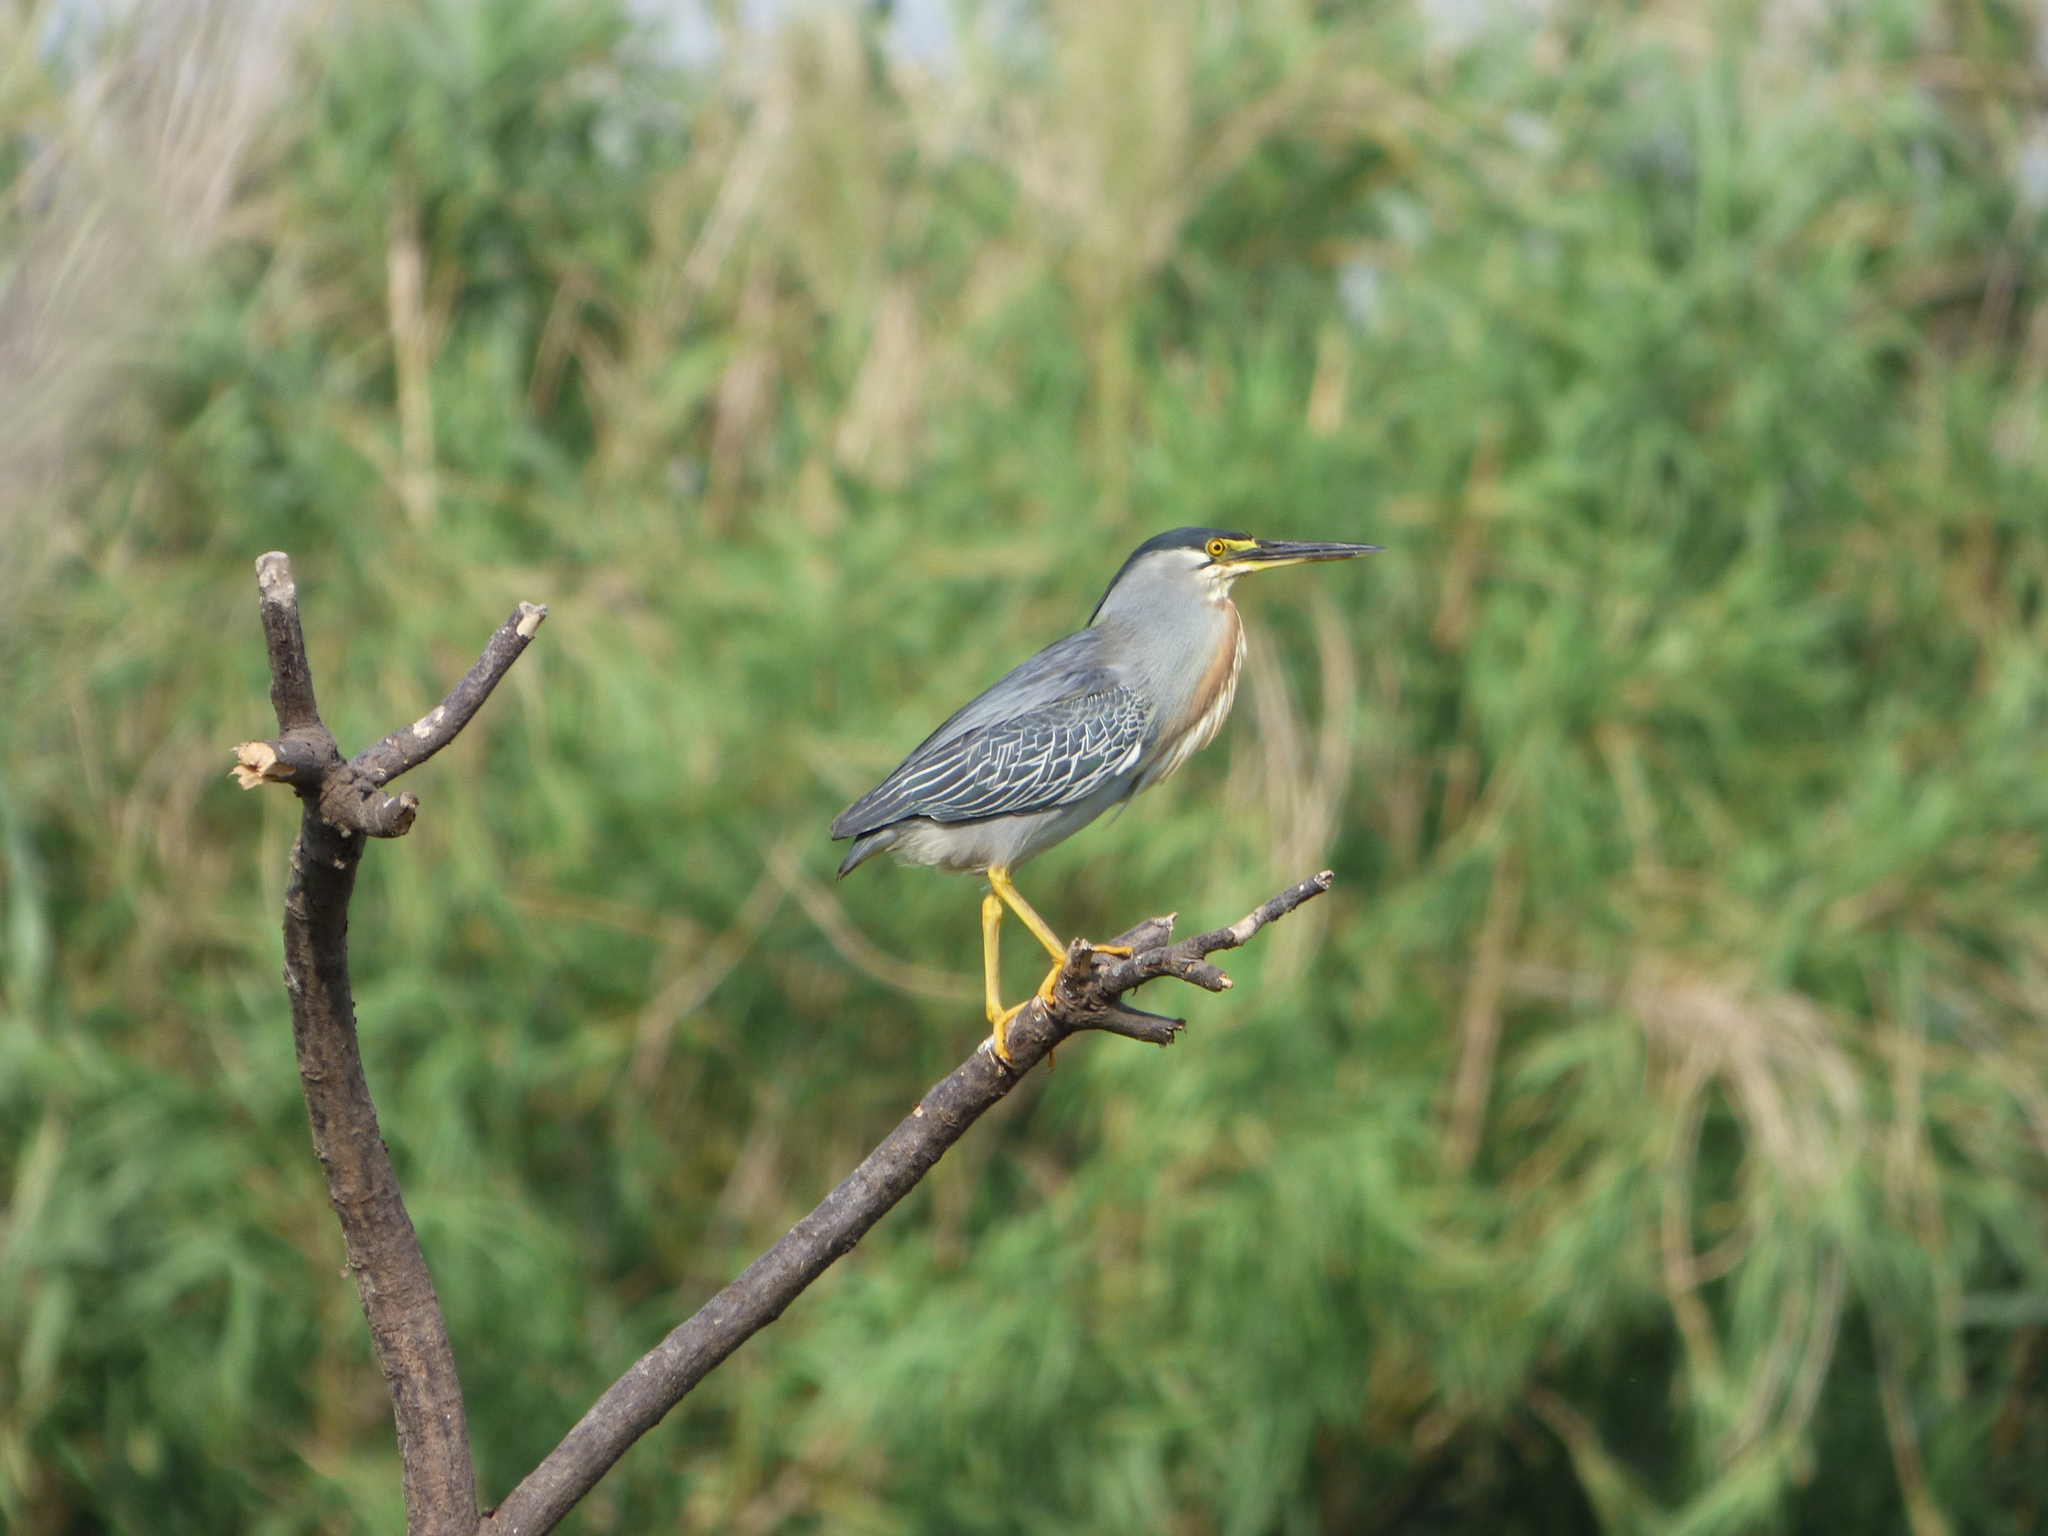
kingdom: Animalia
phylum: Chordata
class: Aves
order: Pelecaniformes
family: Ardeidae
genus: Butorides
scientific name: Butorides striata
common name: Striated heron
